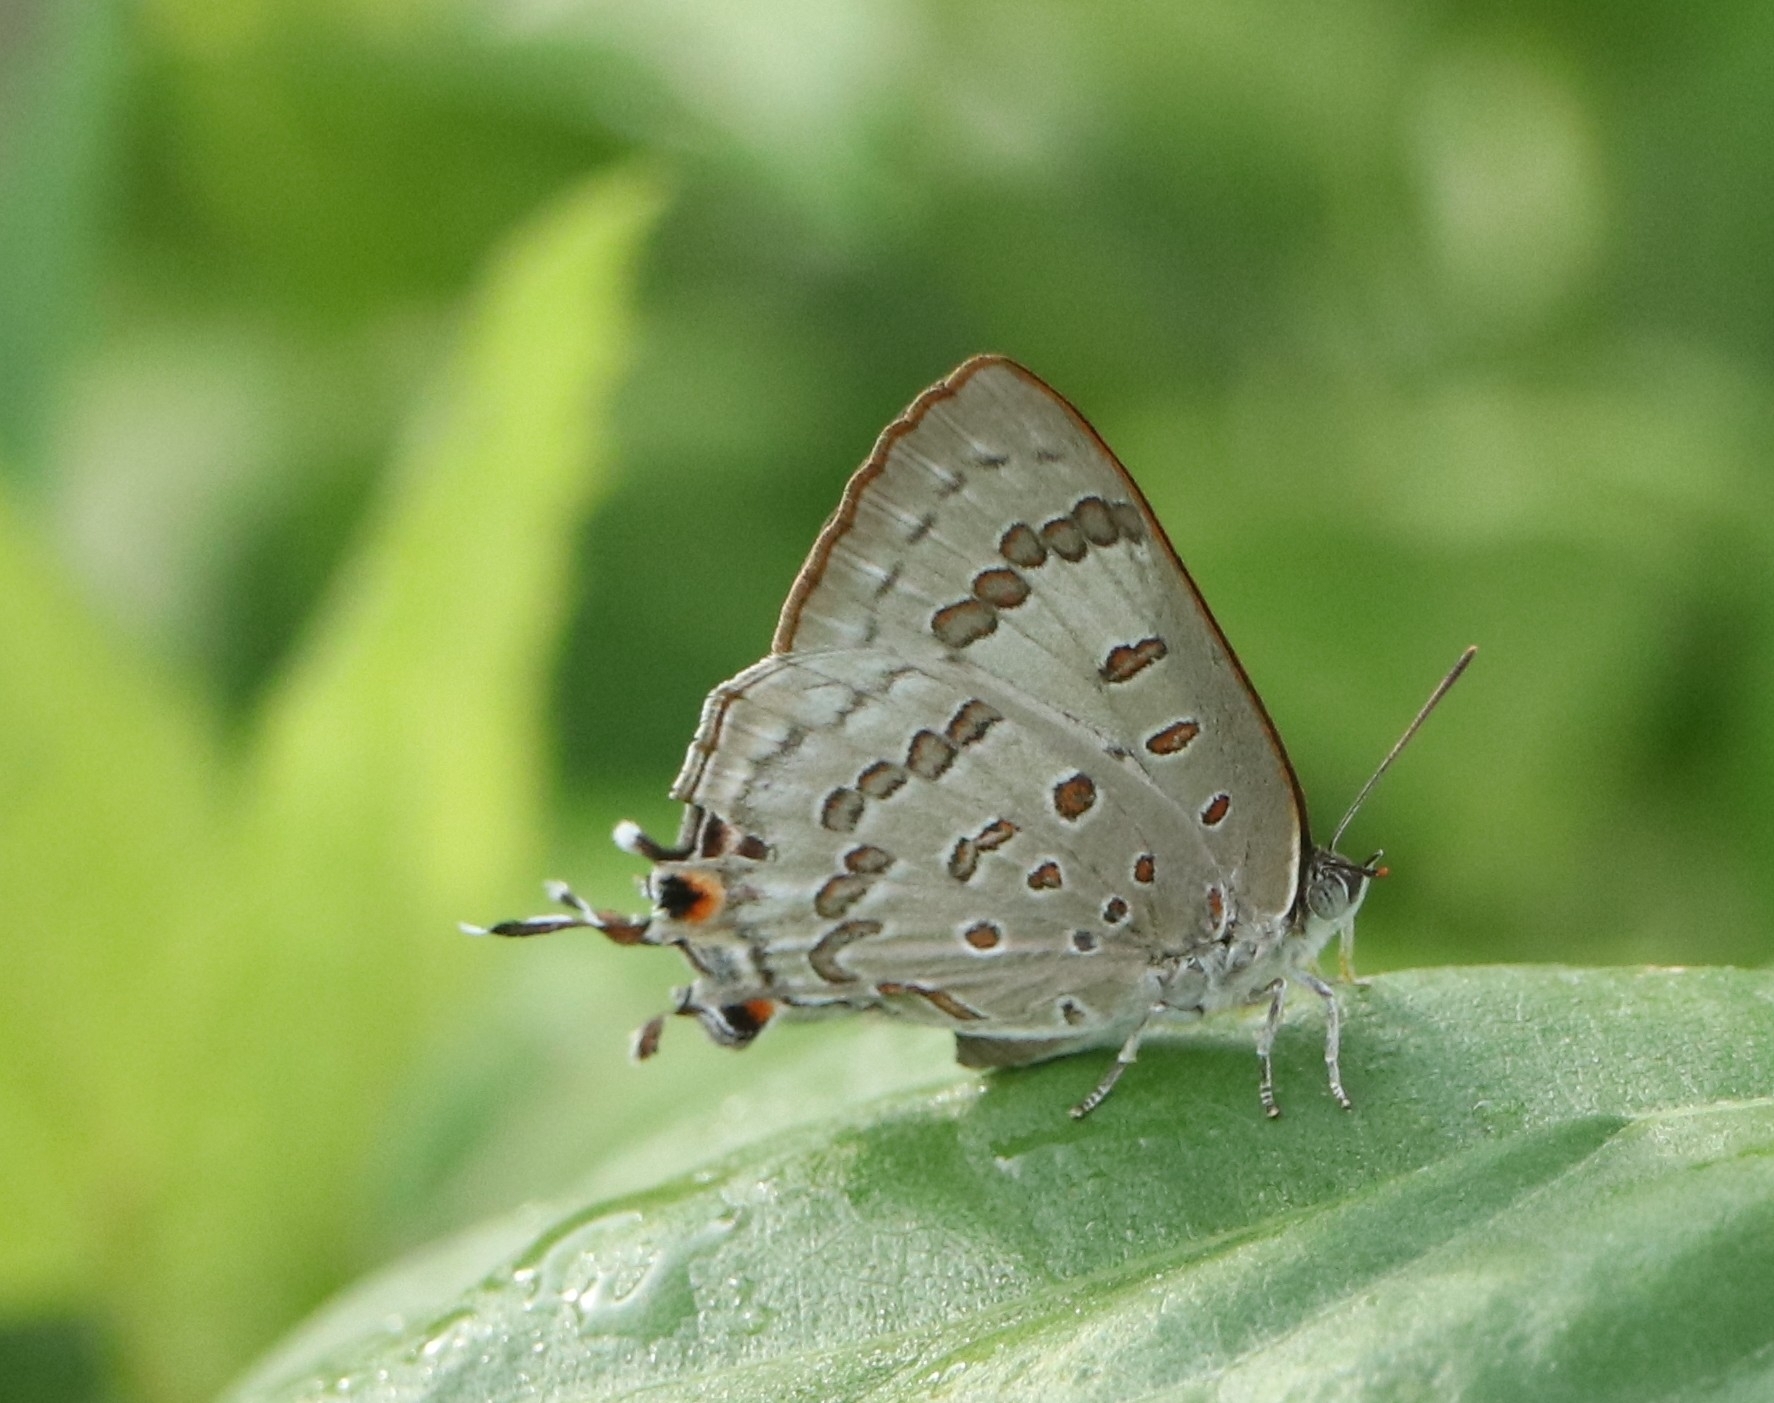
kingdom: Animalia
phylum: Arthropoda
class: Insecta
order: Lepidoptera
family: Lycaenidae
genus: Zesius
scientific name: Zesius chrysomallus
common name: Redspot
